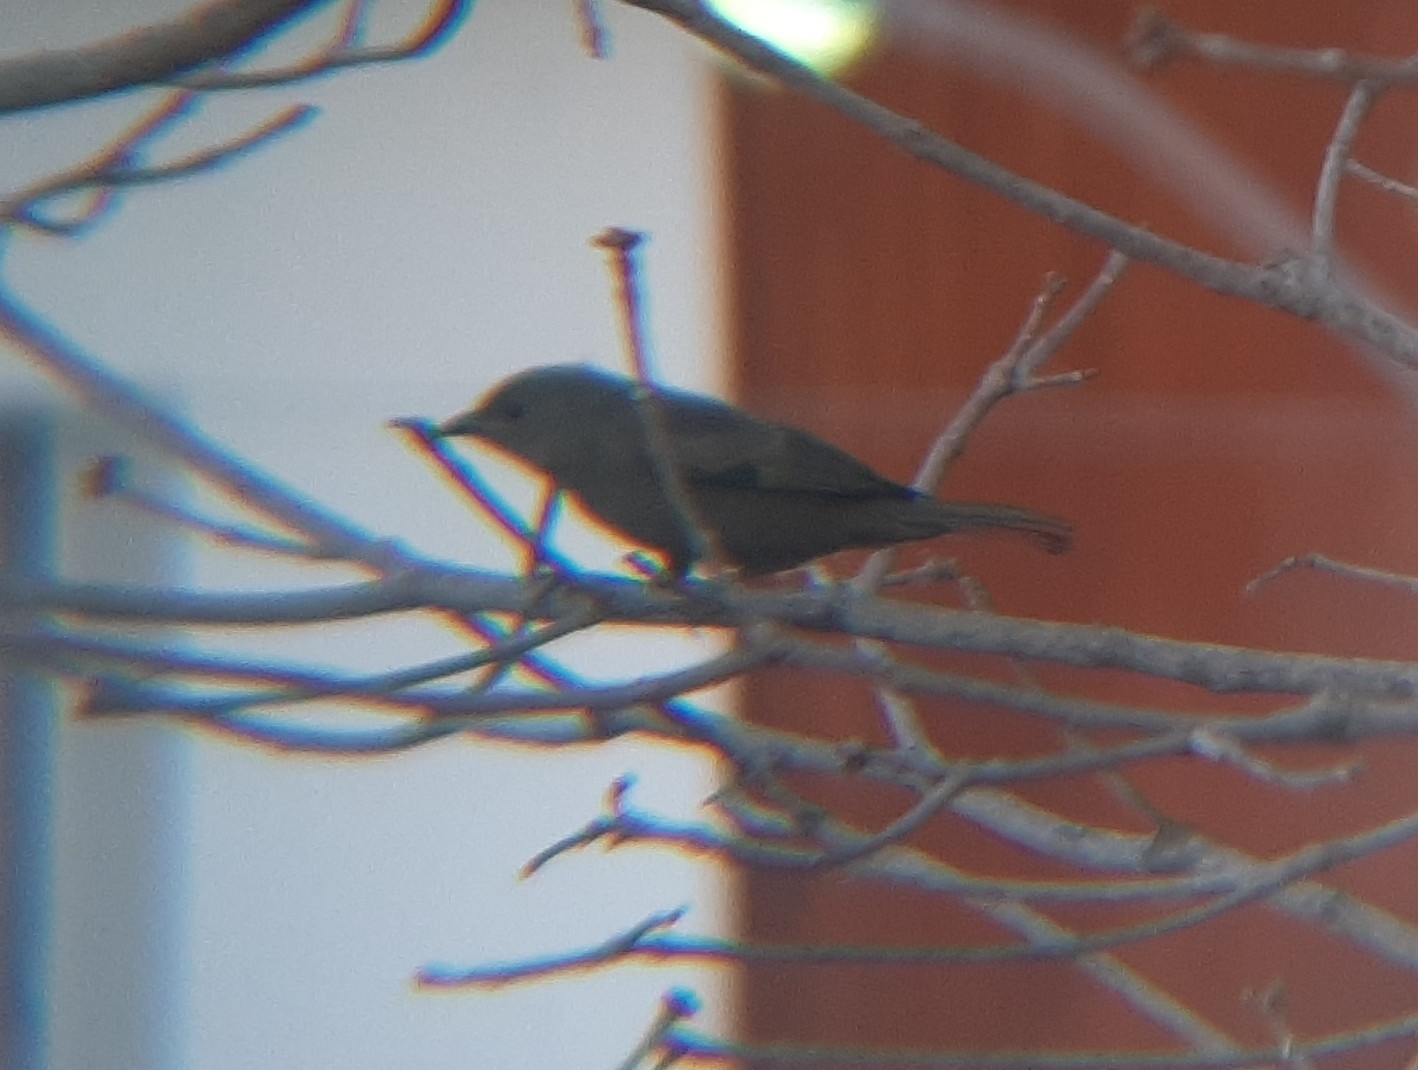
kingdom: Animalia
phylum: Chordata
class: Aves
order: Passeriformes
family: Thraupidae
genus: Thraupis
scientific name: Thraupis palmarum
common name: Palm tanager
